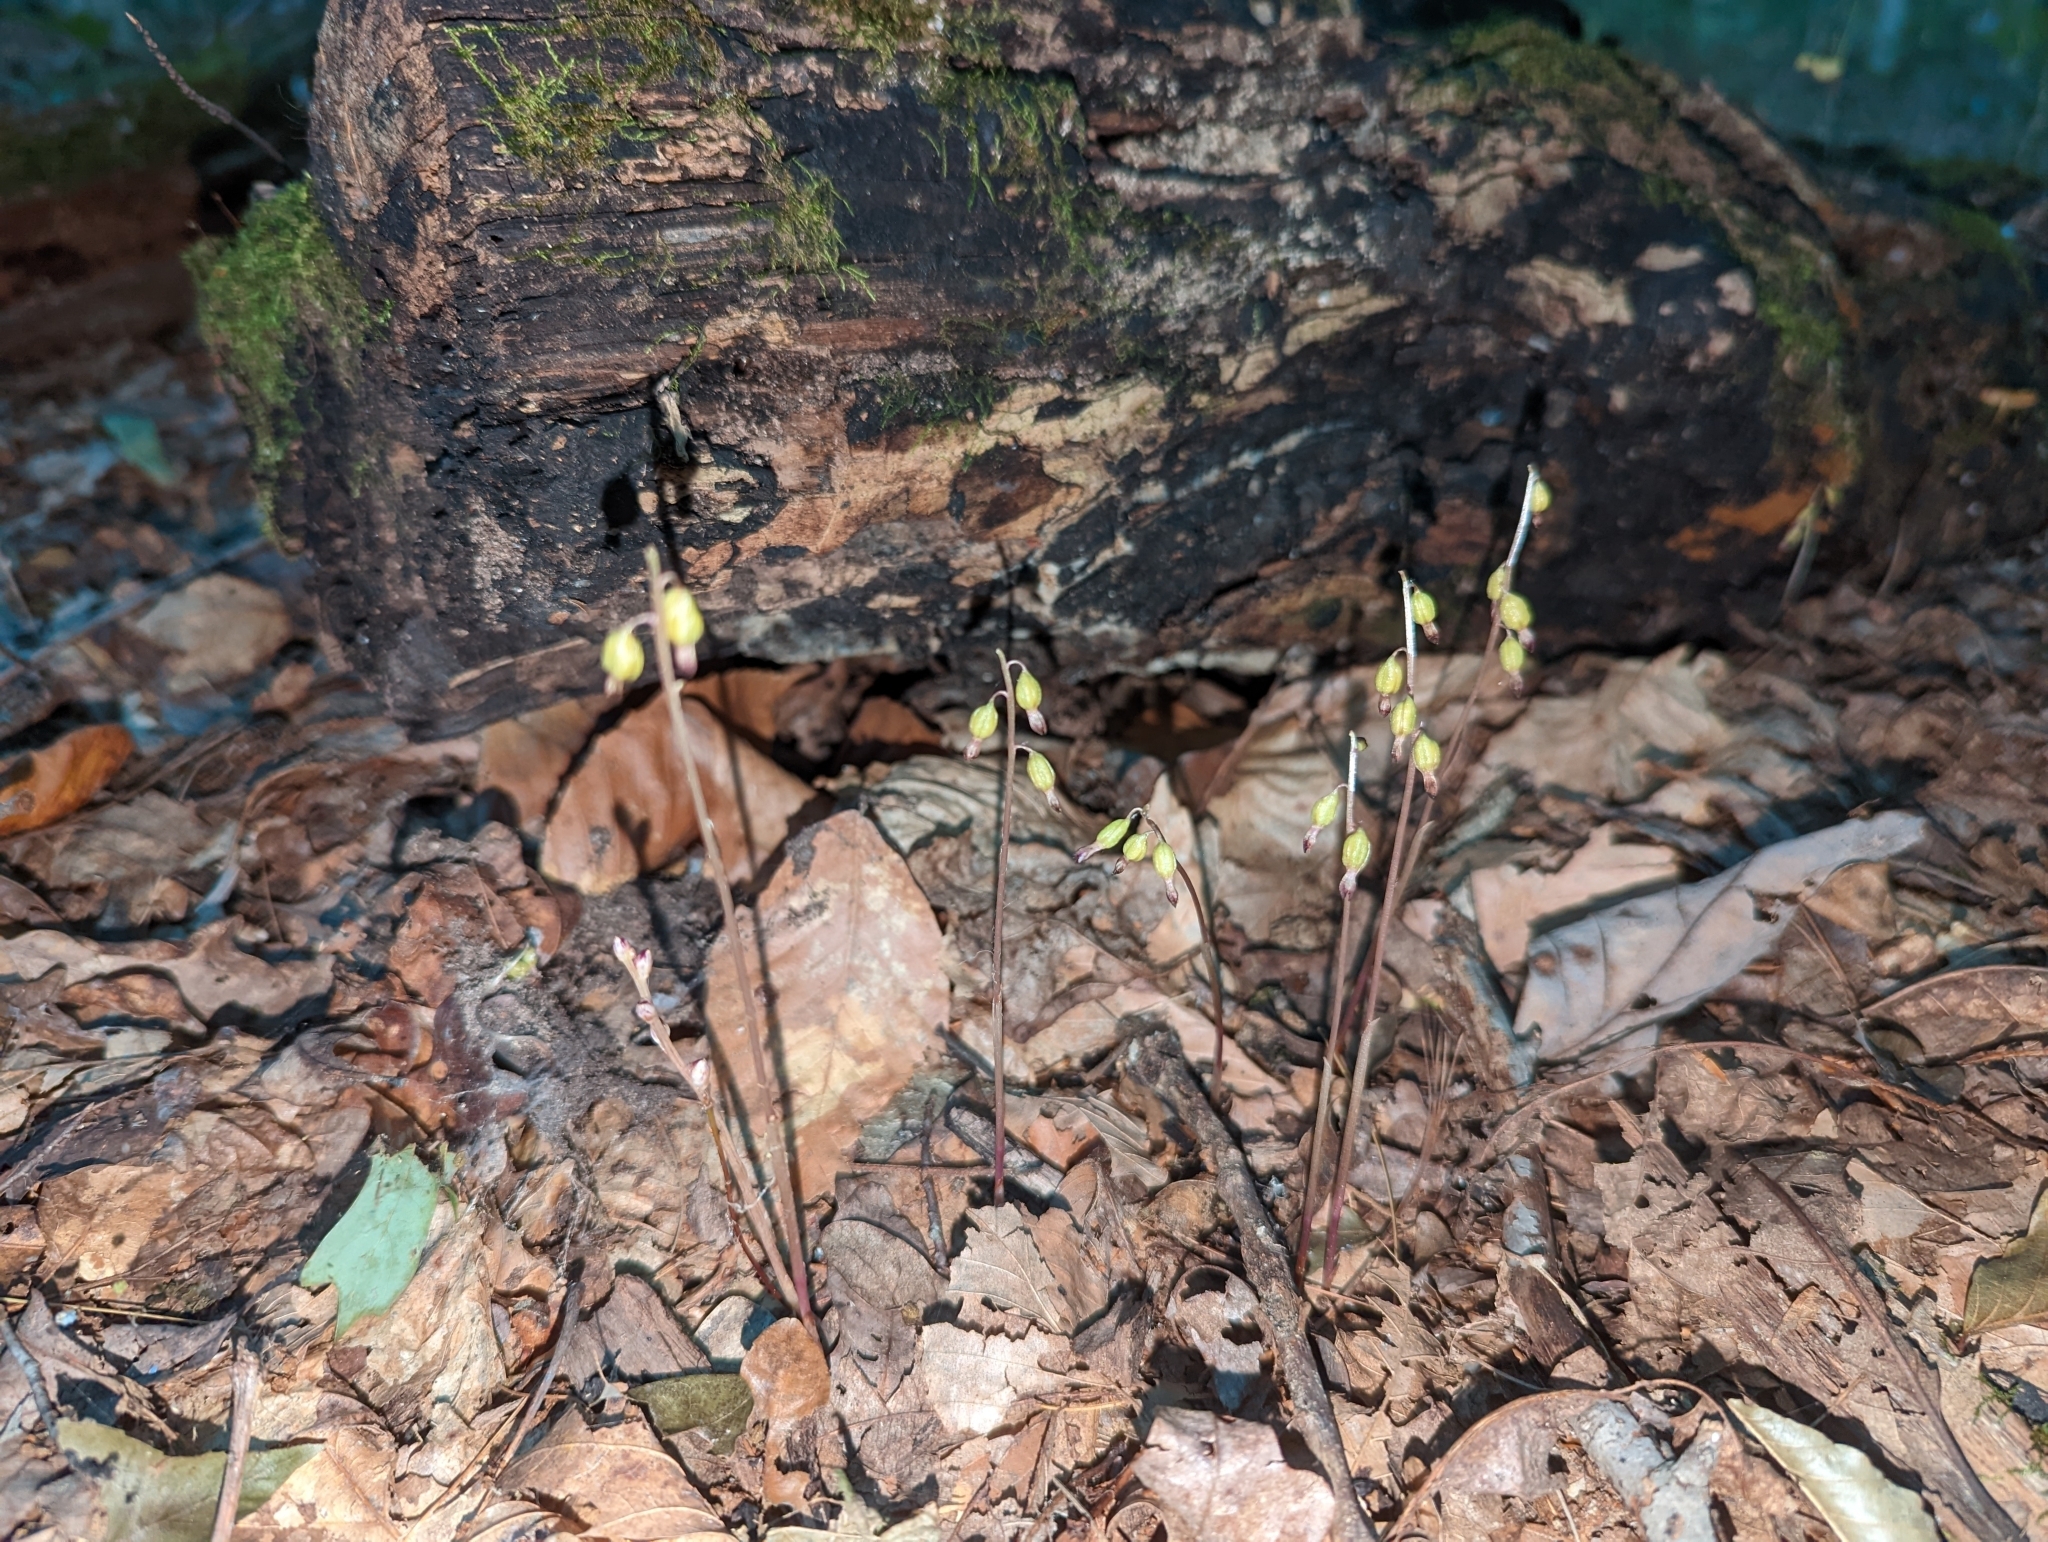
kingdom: Plantae
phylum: Tracheophyta
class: Liliopsida
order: Asparagales
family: Orchidaceae
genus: Corallorhiza
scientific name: Corallorhiza odontorhiza
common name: Autumn coralroot
